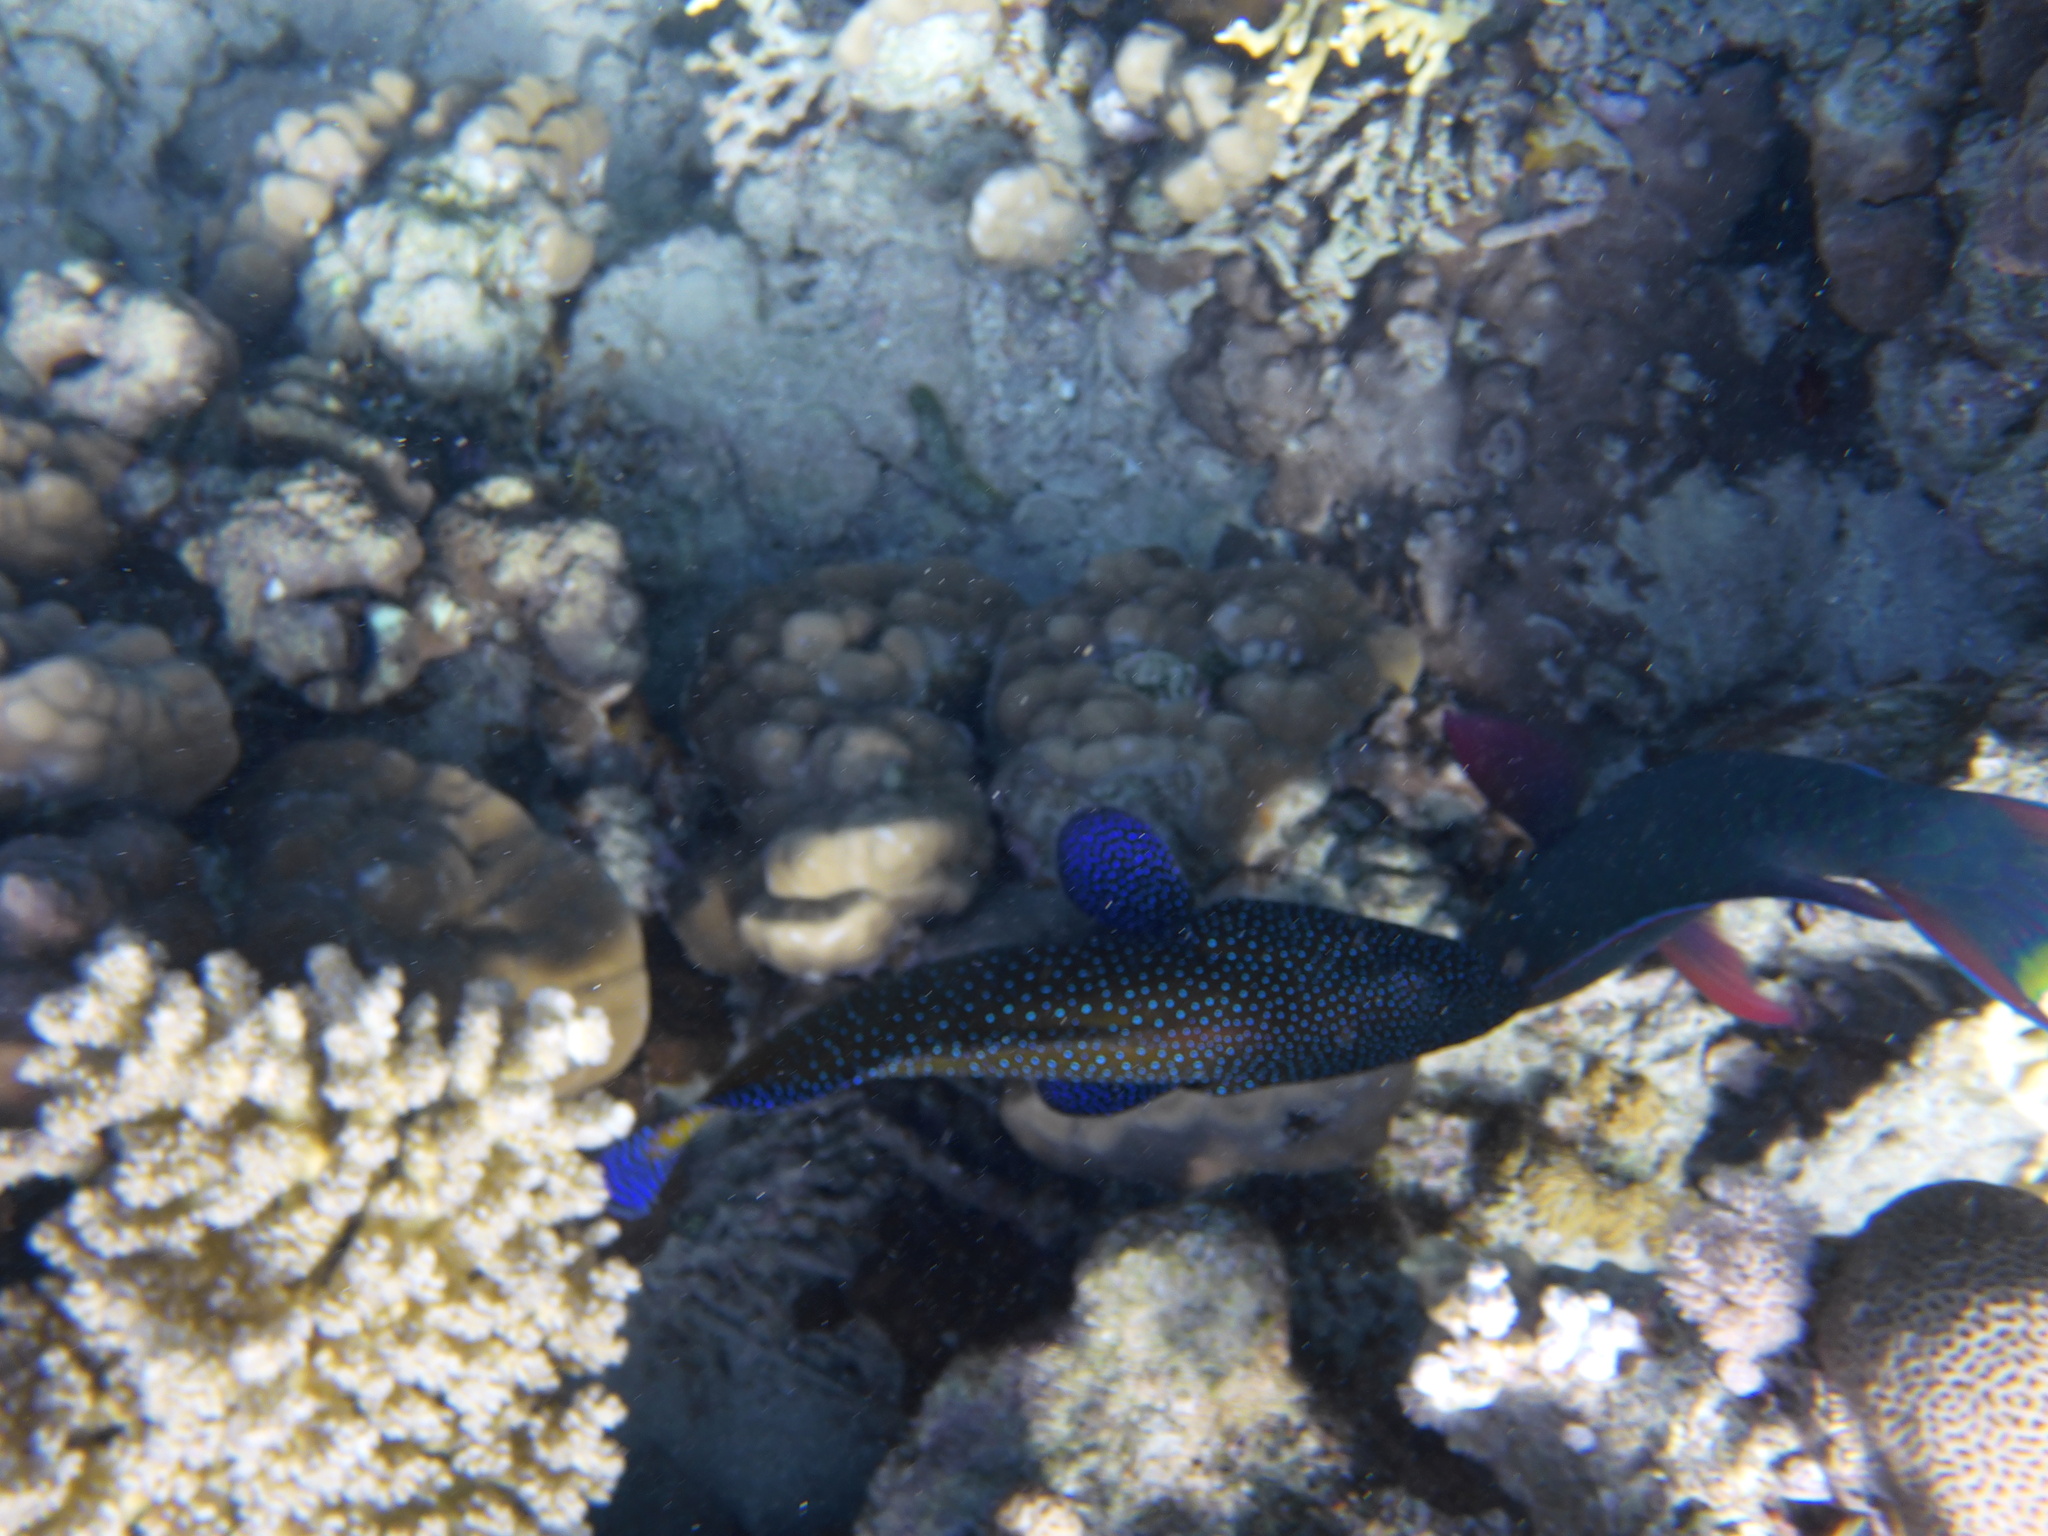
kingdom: Animalia
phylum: Chordata
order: Perciformes
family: Serranidae
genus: Cephalopholis
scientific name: Cephalopholis argus
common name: Peacock grouper
